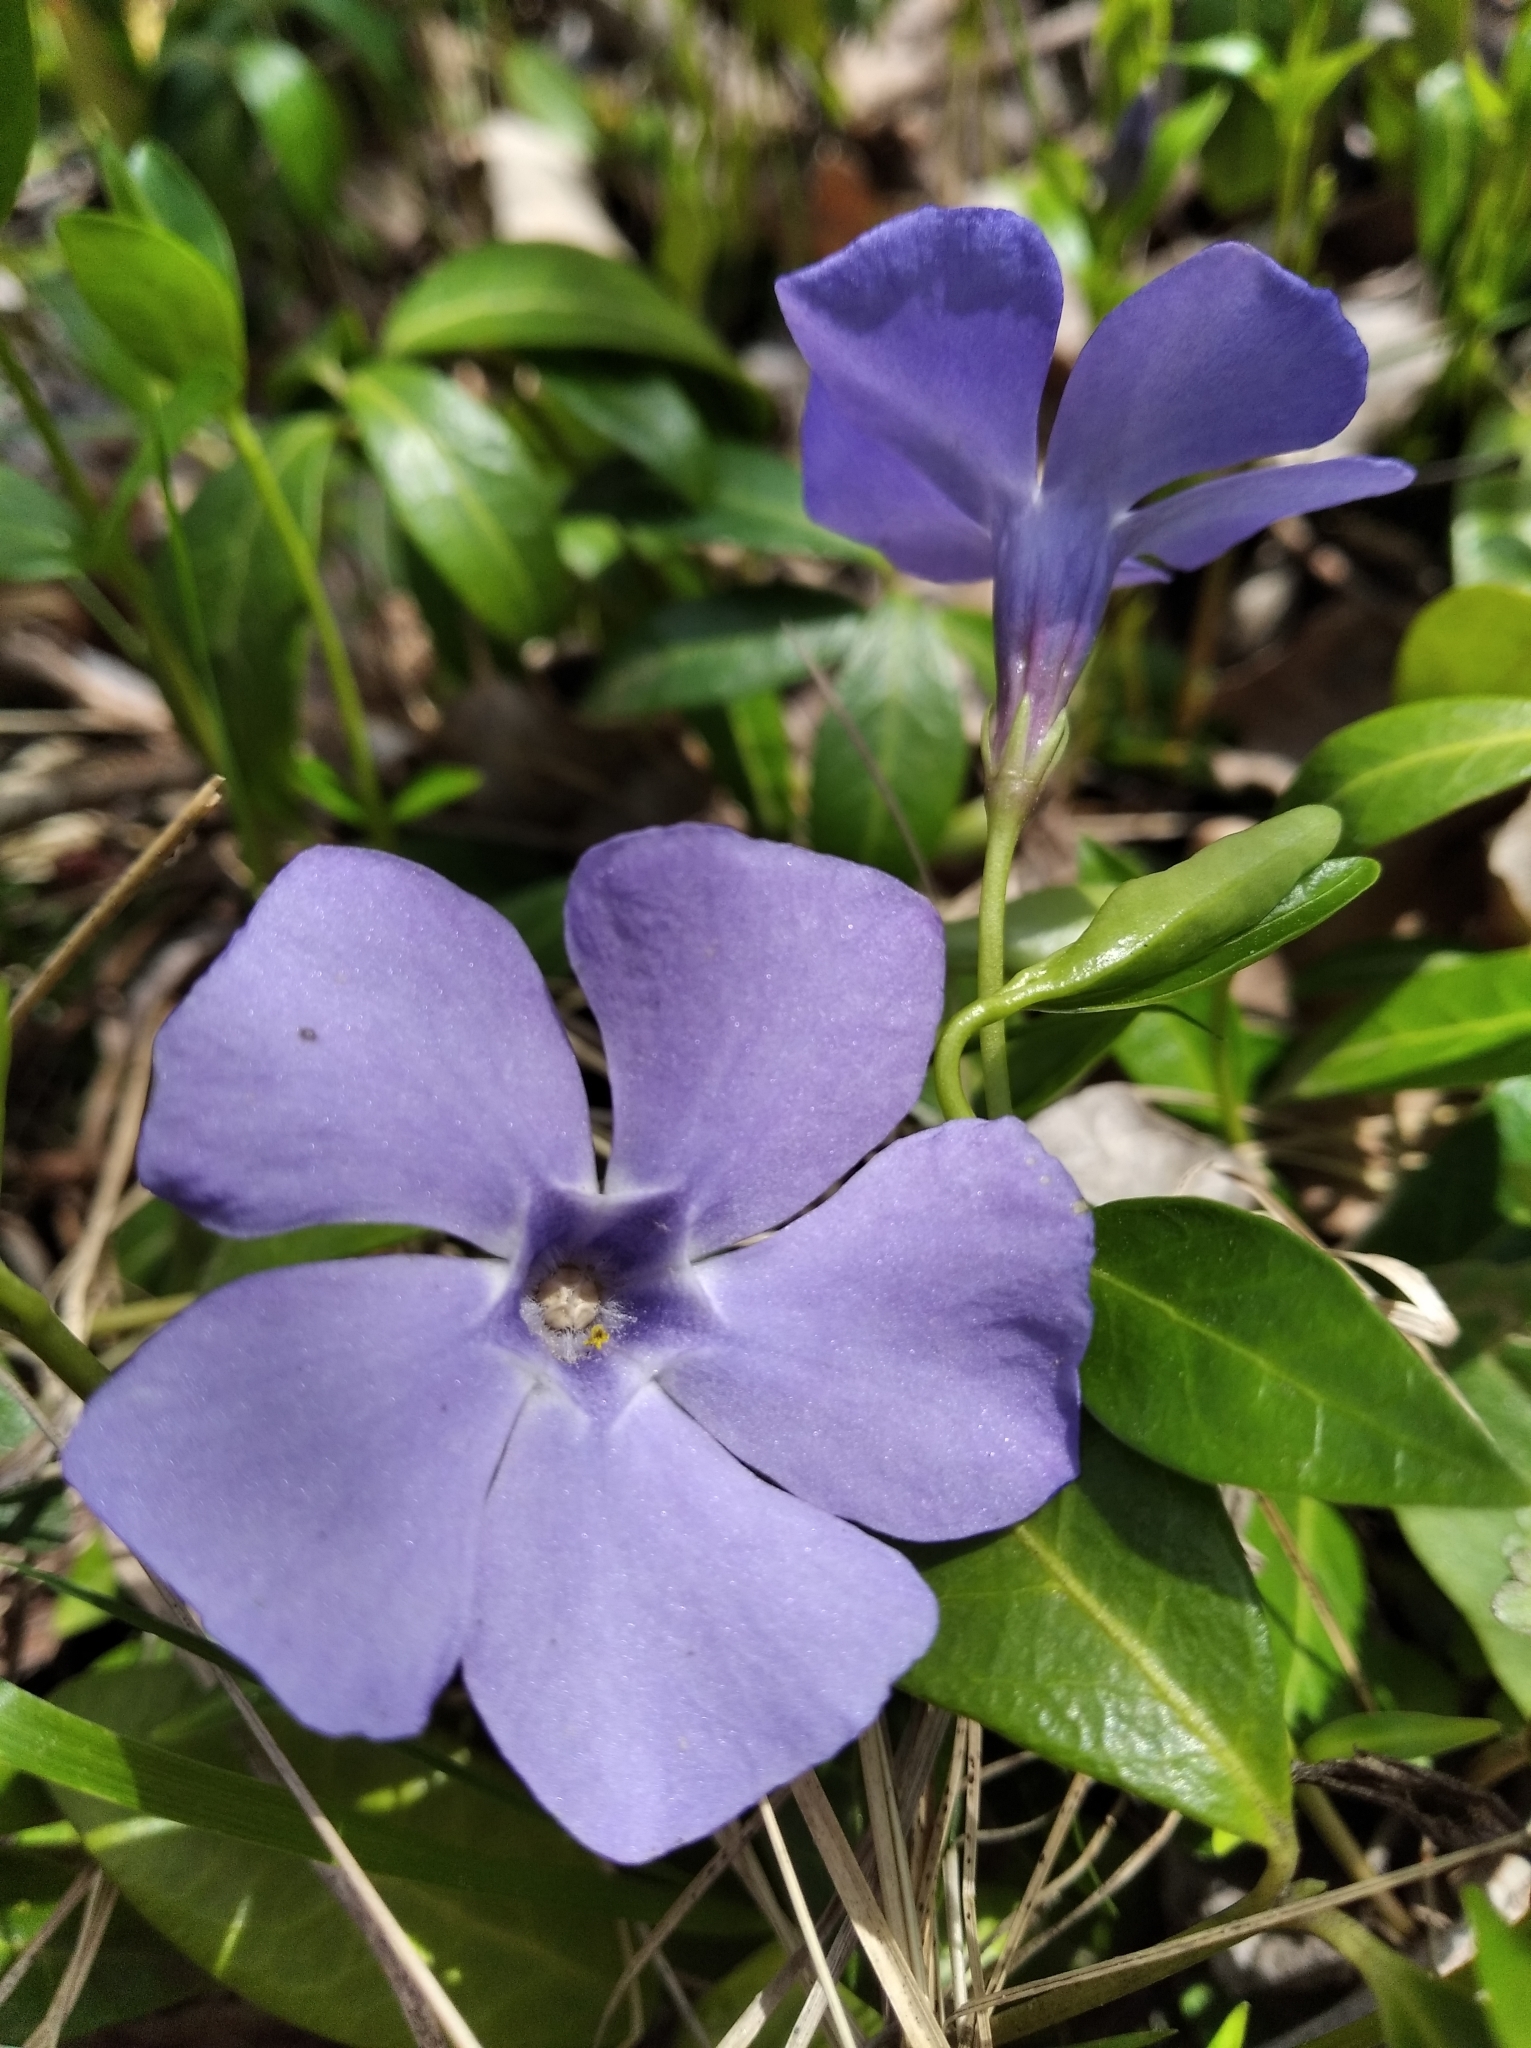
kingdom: Plantae
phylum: Tracheophyta
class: Magnoliopsida
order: Gentianales
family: Apocynaceae
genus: Vinca
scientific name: Vinca minor
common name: Lesser periwinkle
